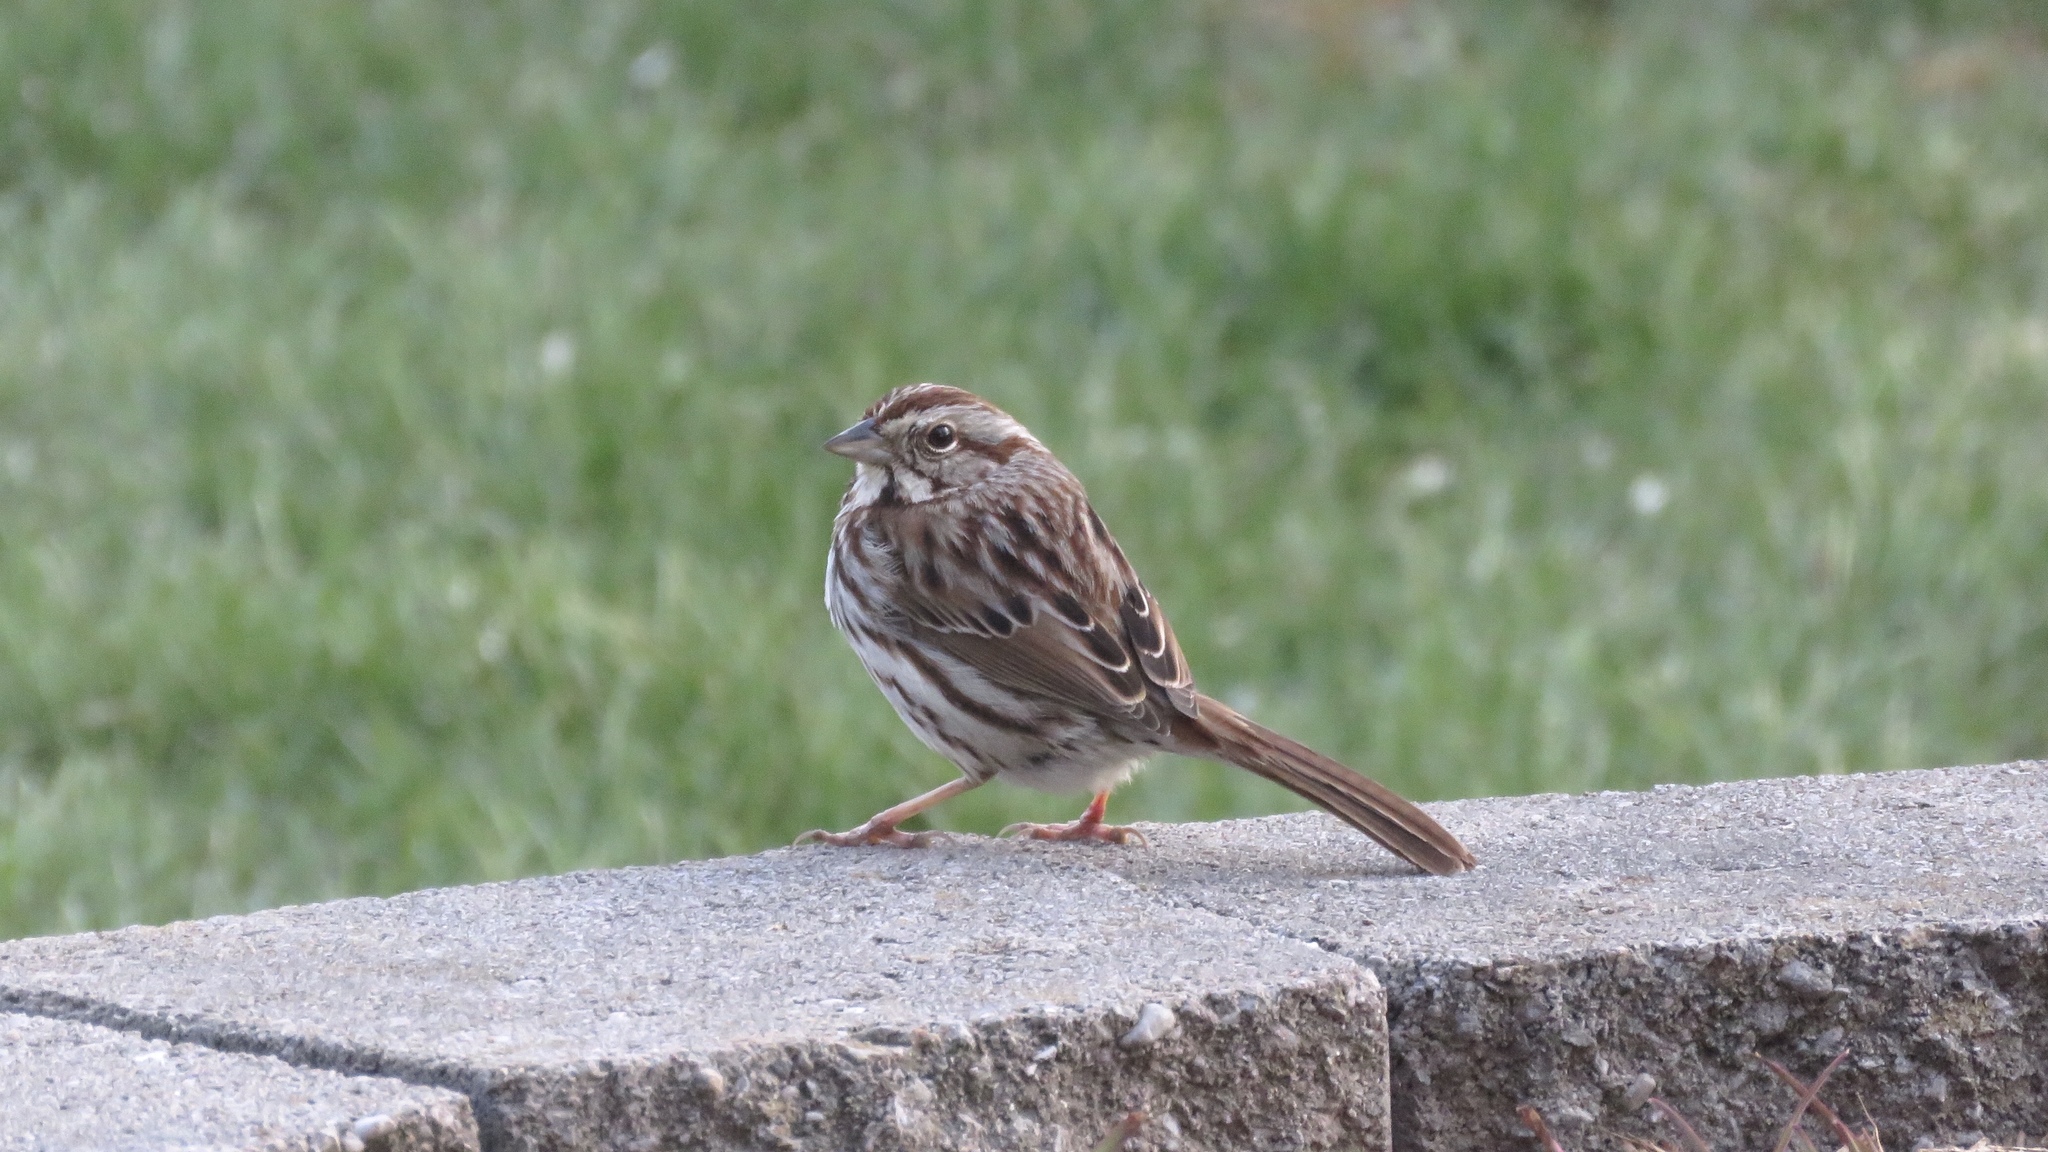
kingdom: Animalia
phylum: Chordata
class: Aves
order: Passeriformes
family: Passerellidae
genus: Melospiza
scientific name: Melospiza melodia
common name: Song sparrow
